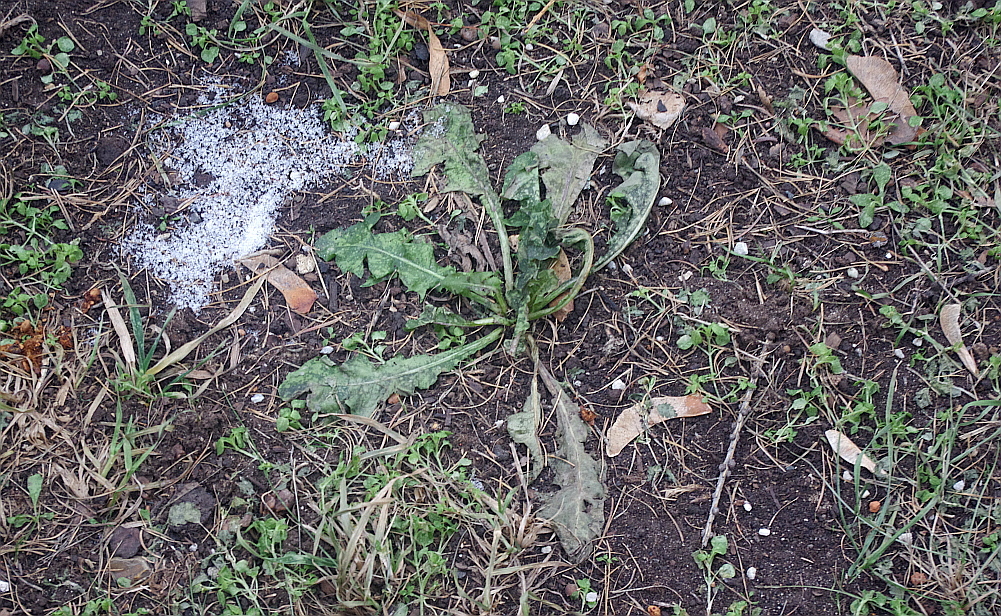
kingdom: Plantae
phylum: Tracheophyta
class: Magnoliopsida
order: Asterales
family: Asteraceae
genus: Taraxacum
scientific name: Taraxacum officinale
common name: Common dandelion
